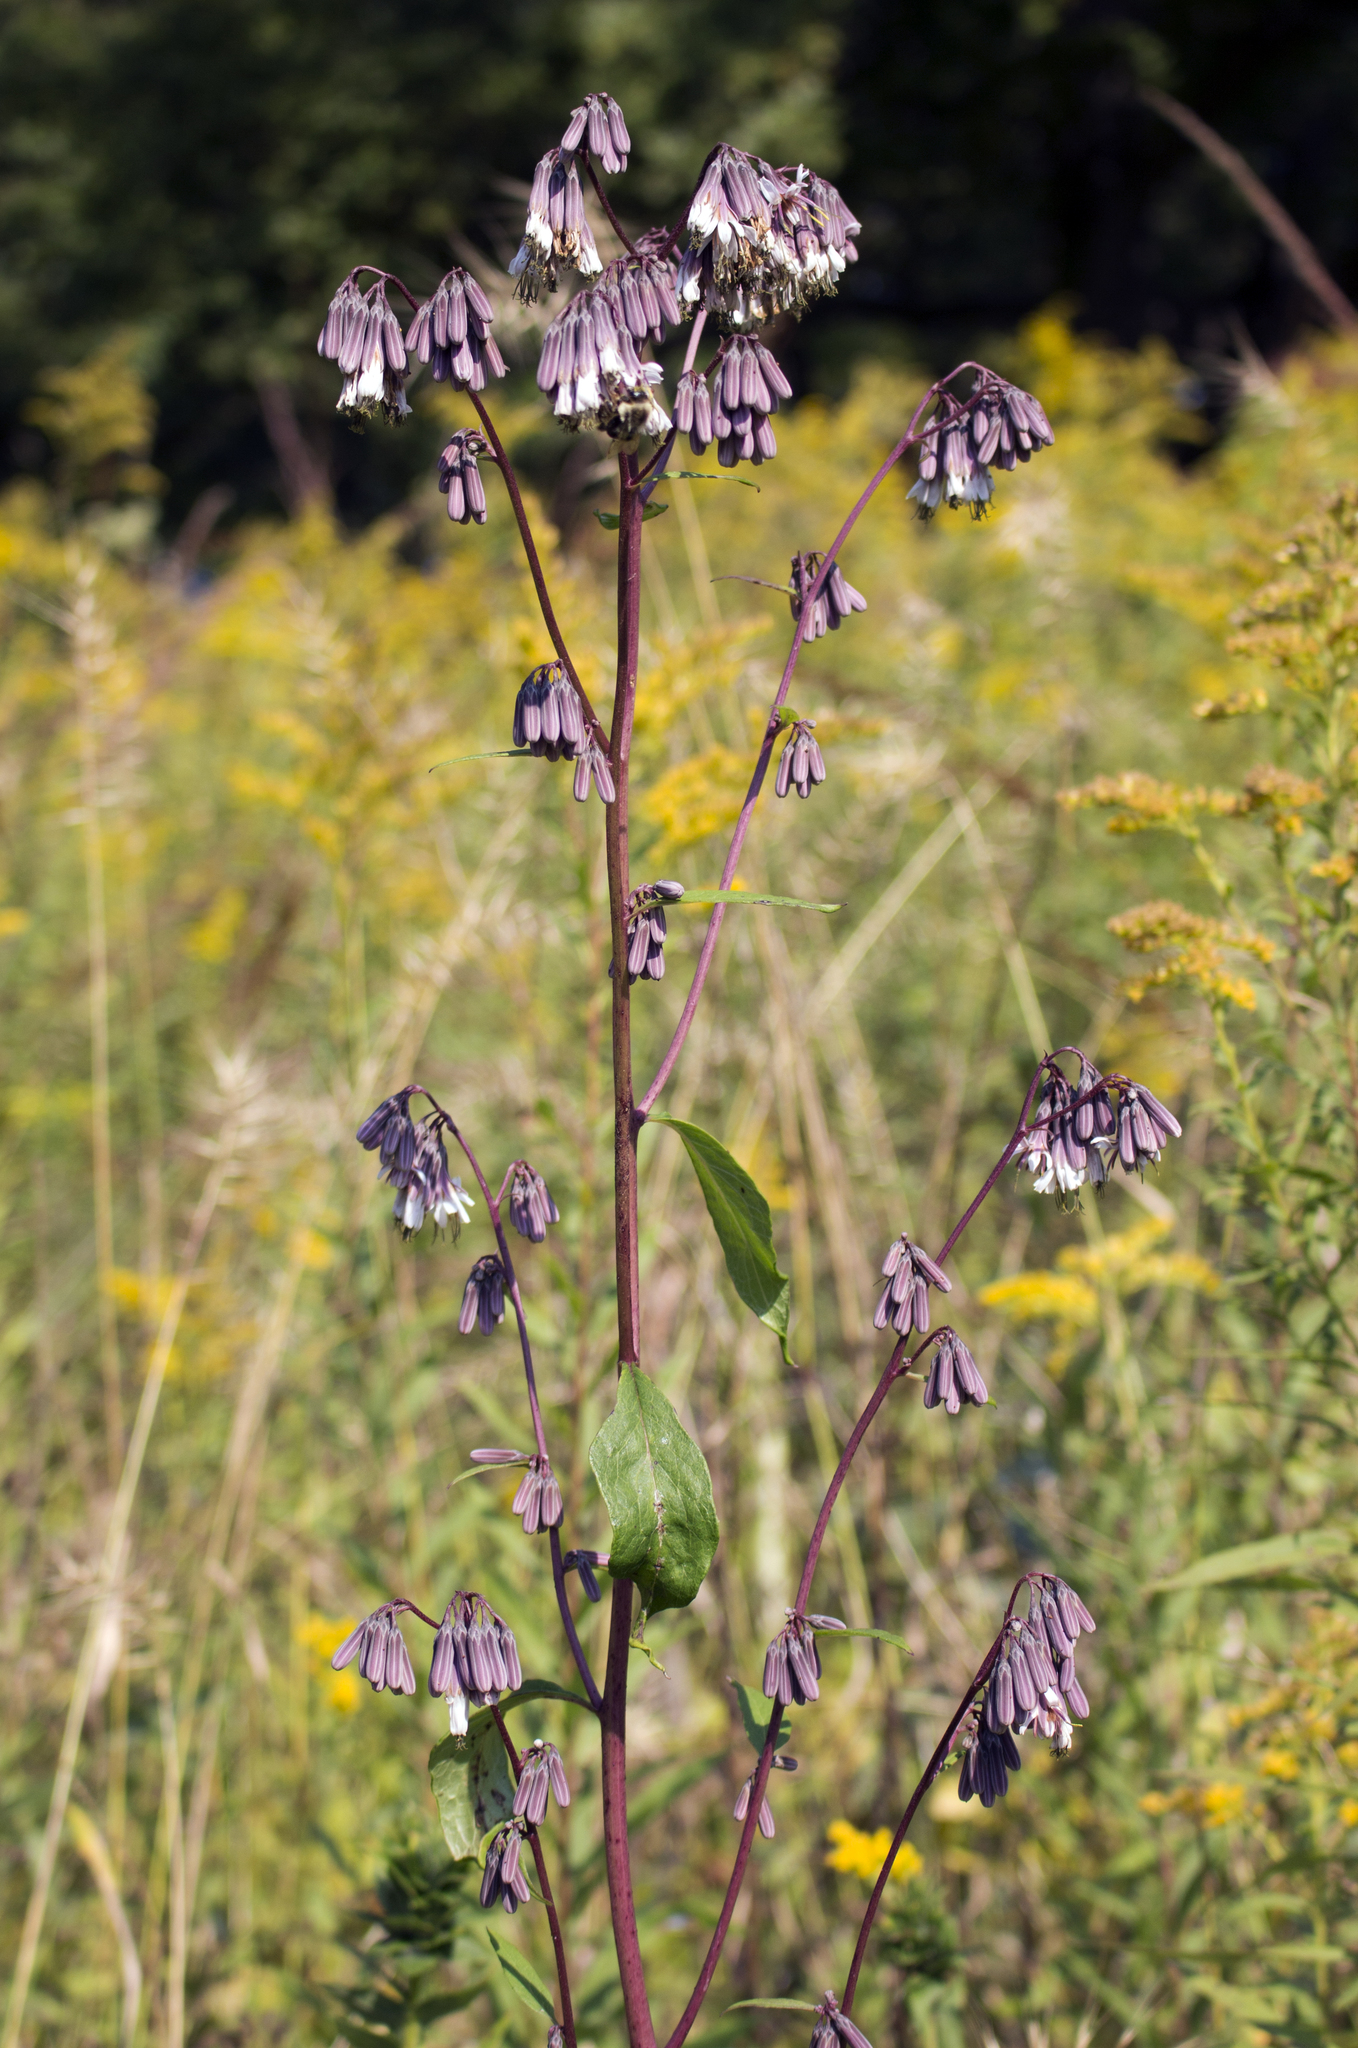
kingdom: Plantae
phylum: Tracheophyta
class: Magnoliopsida
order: Asterales
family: Asteraceae
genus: Nabalus
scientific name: Nabalus albus
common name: White rattlesnakeroot
